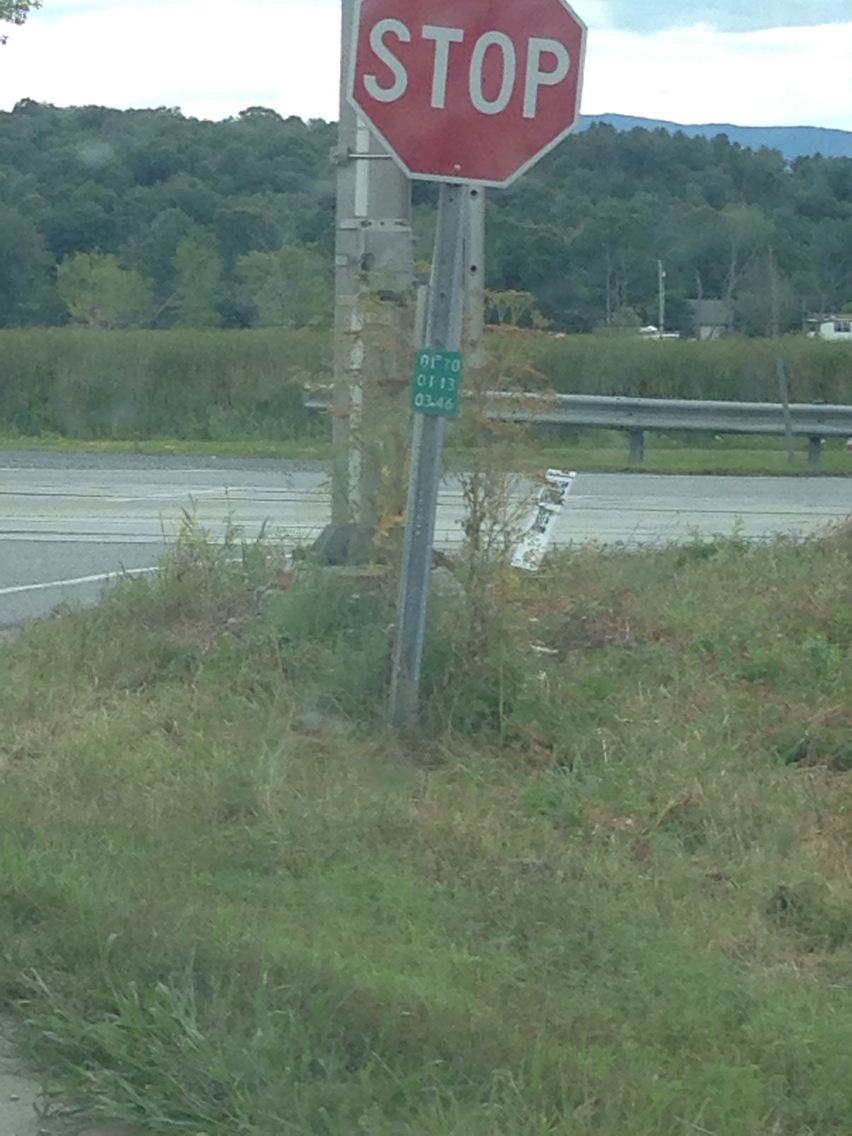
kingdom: Plantae
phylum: Tracheophyta
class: Magnoliopsida
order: Apiales
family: Apiaceae
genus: Pastinaca
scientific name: Pastinaca sativa
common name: Wild parsnip
